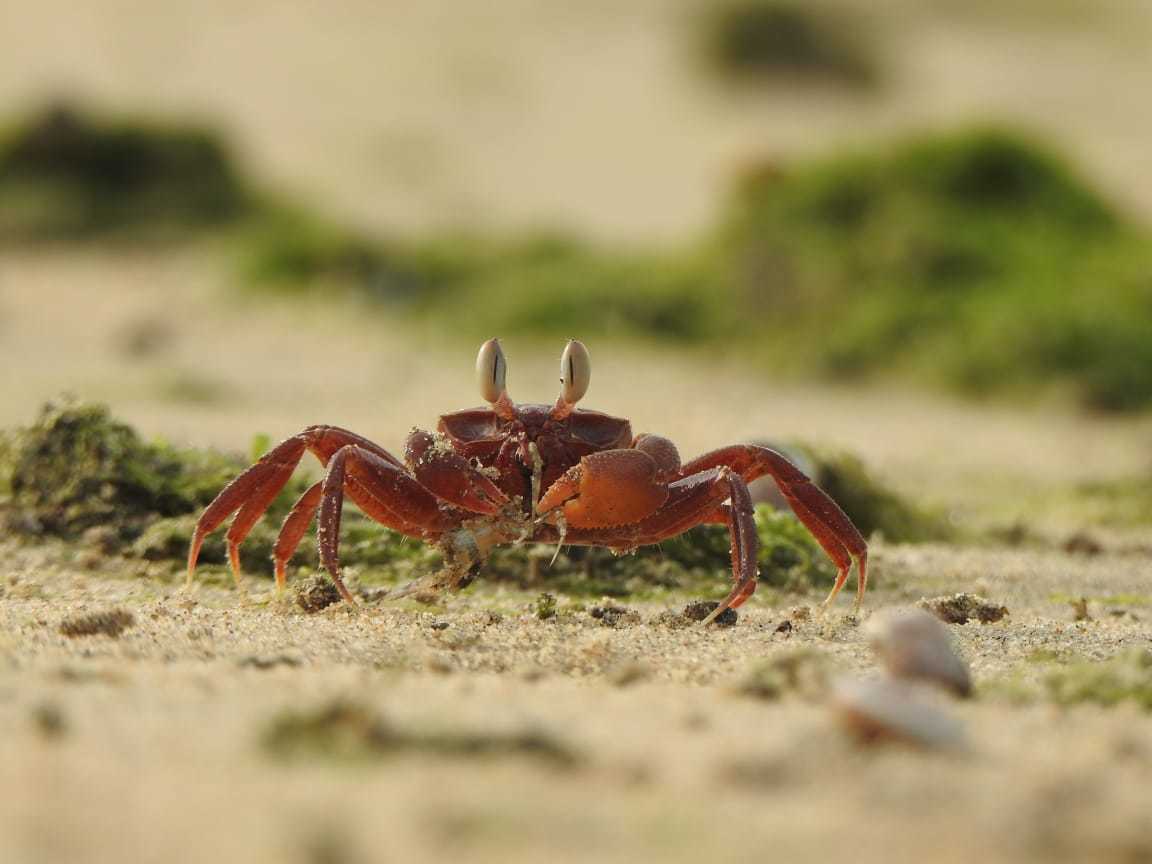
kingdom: Animalia
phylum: Arthropoda
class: Malacostraca
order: Decapoda
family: Ocypodidae
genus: Ocypode
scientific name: Ocypode macrocera
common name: Red ghost crab
